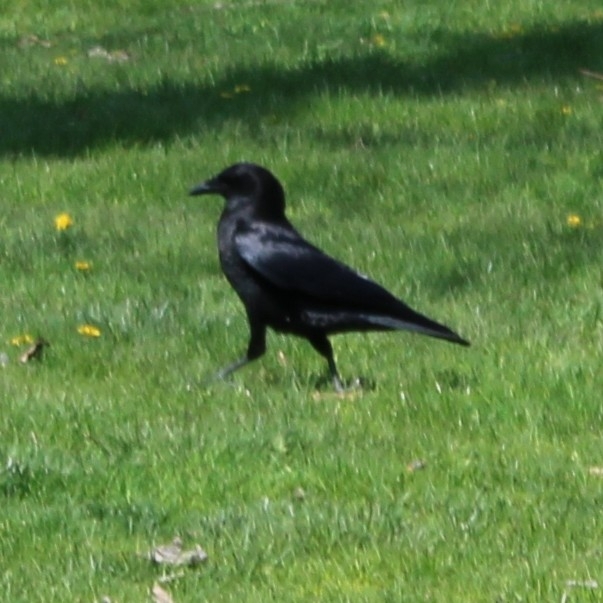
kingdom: Animalia
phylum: Chordata
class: Aves
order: Passeriformes
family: Corvidae
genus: Corvus
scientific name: Corvus brachyrhynchos
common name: American crow
